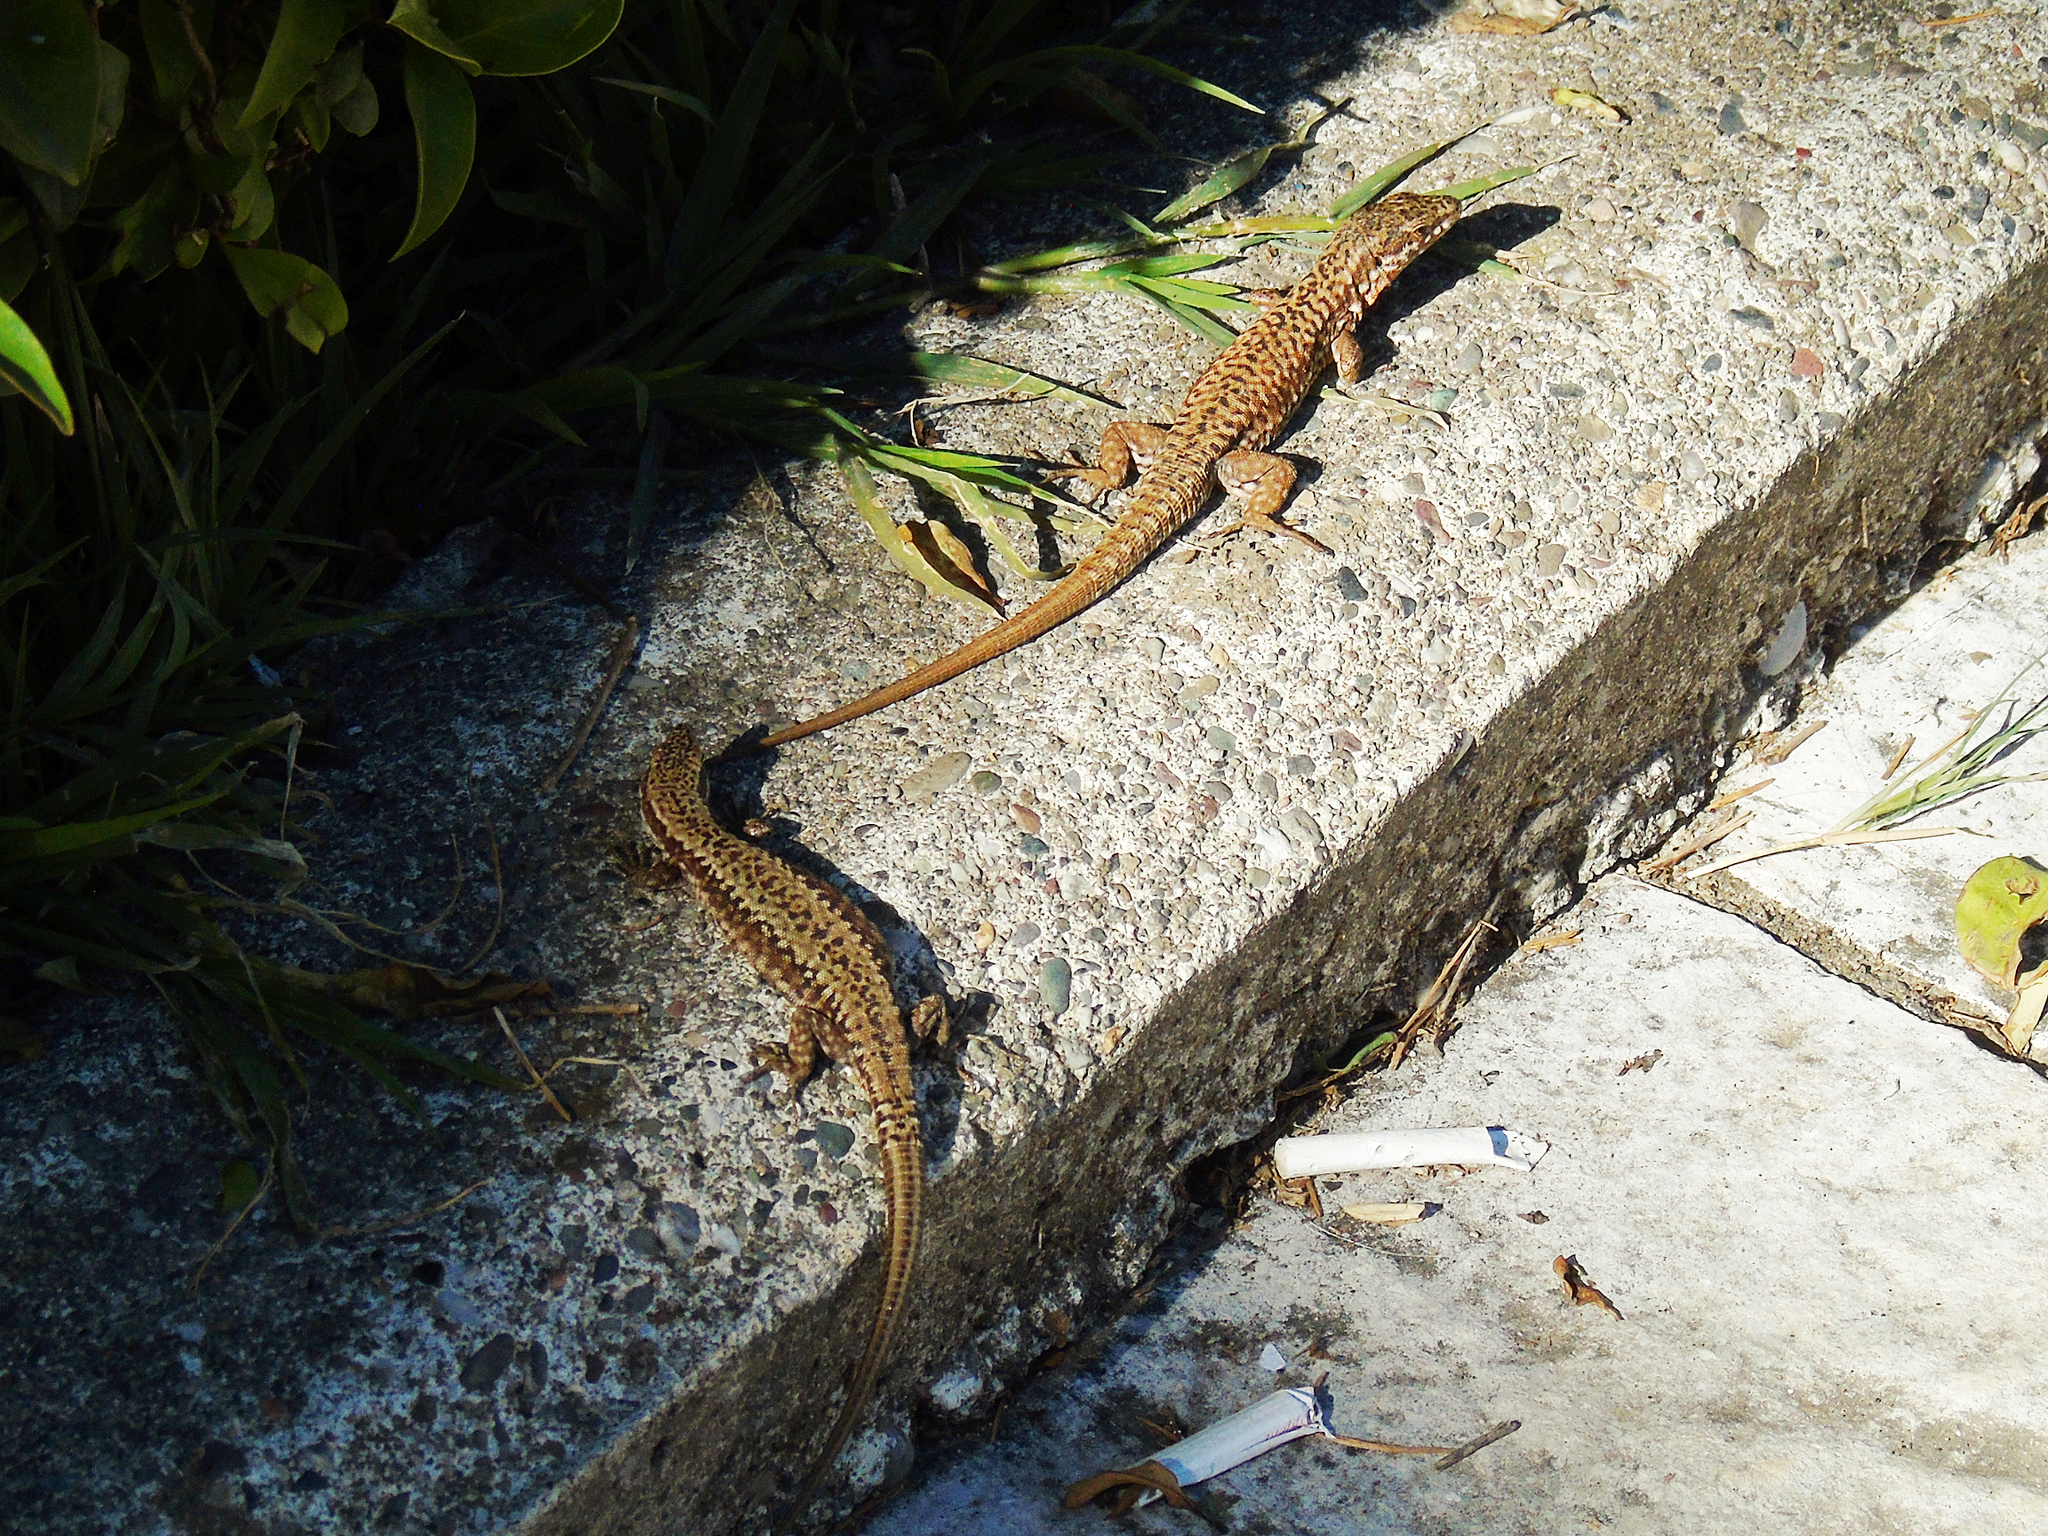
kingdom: Animalia
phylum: Chordata
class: Squamata
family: Lacertidae
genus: Podarcis
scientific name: Podarcis muralis
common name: Common wall lizard
